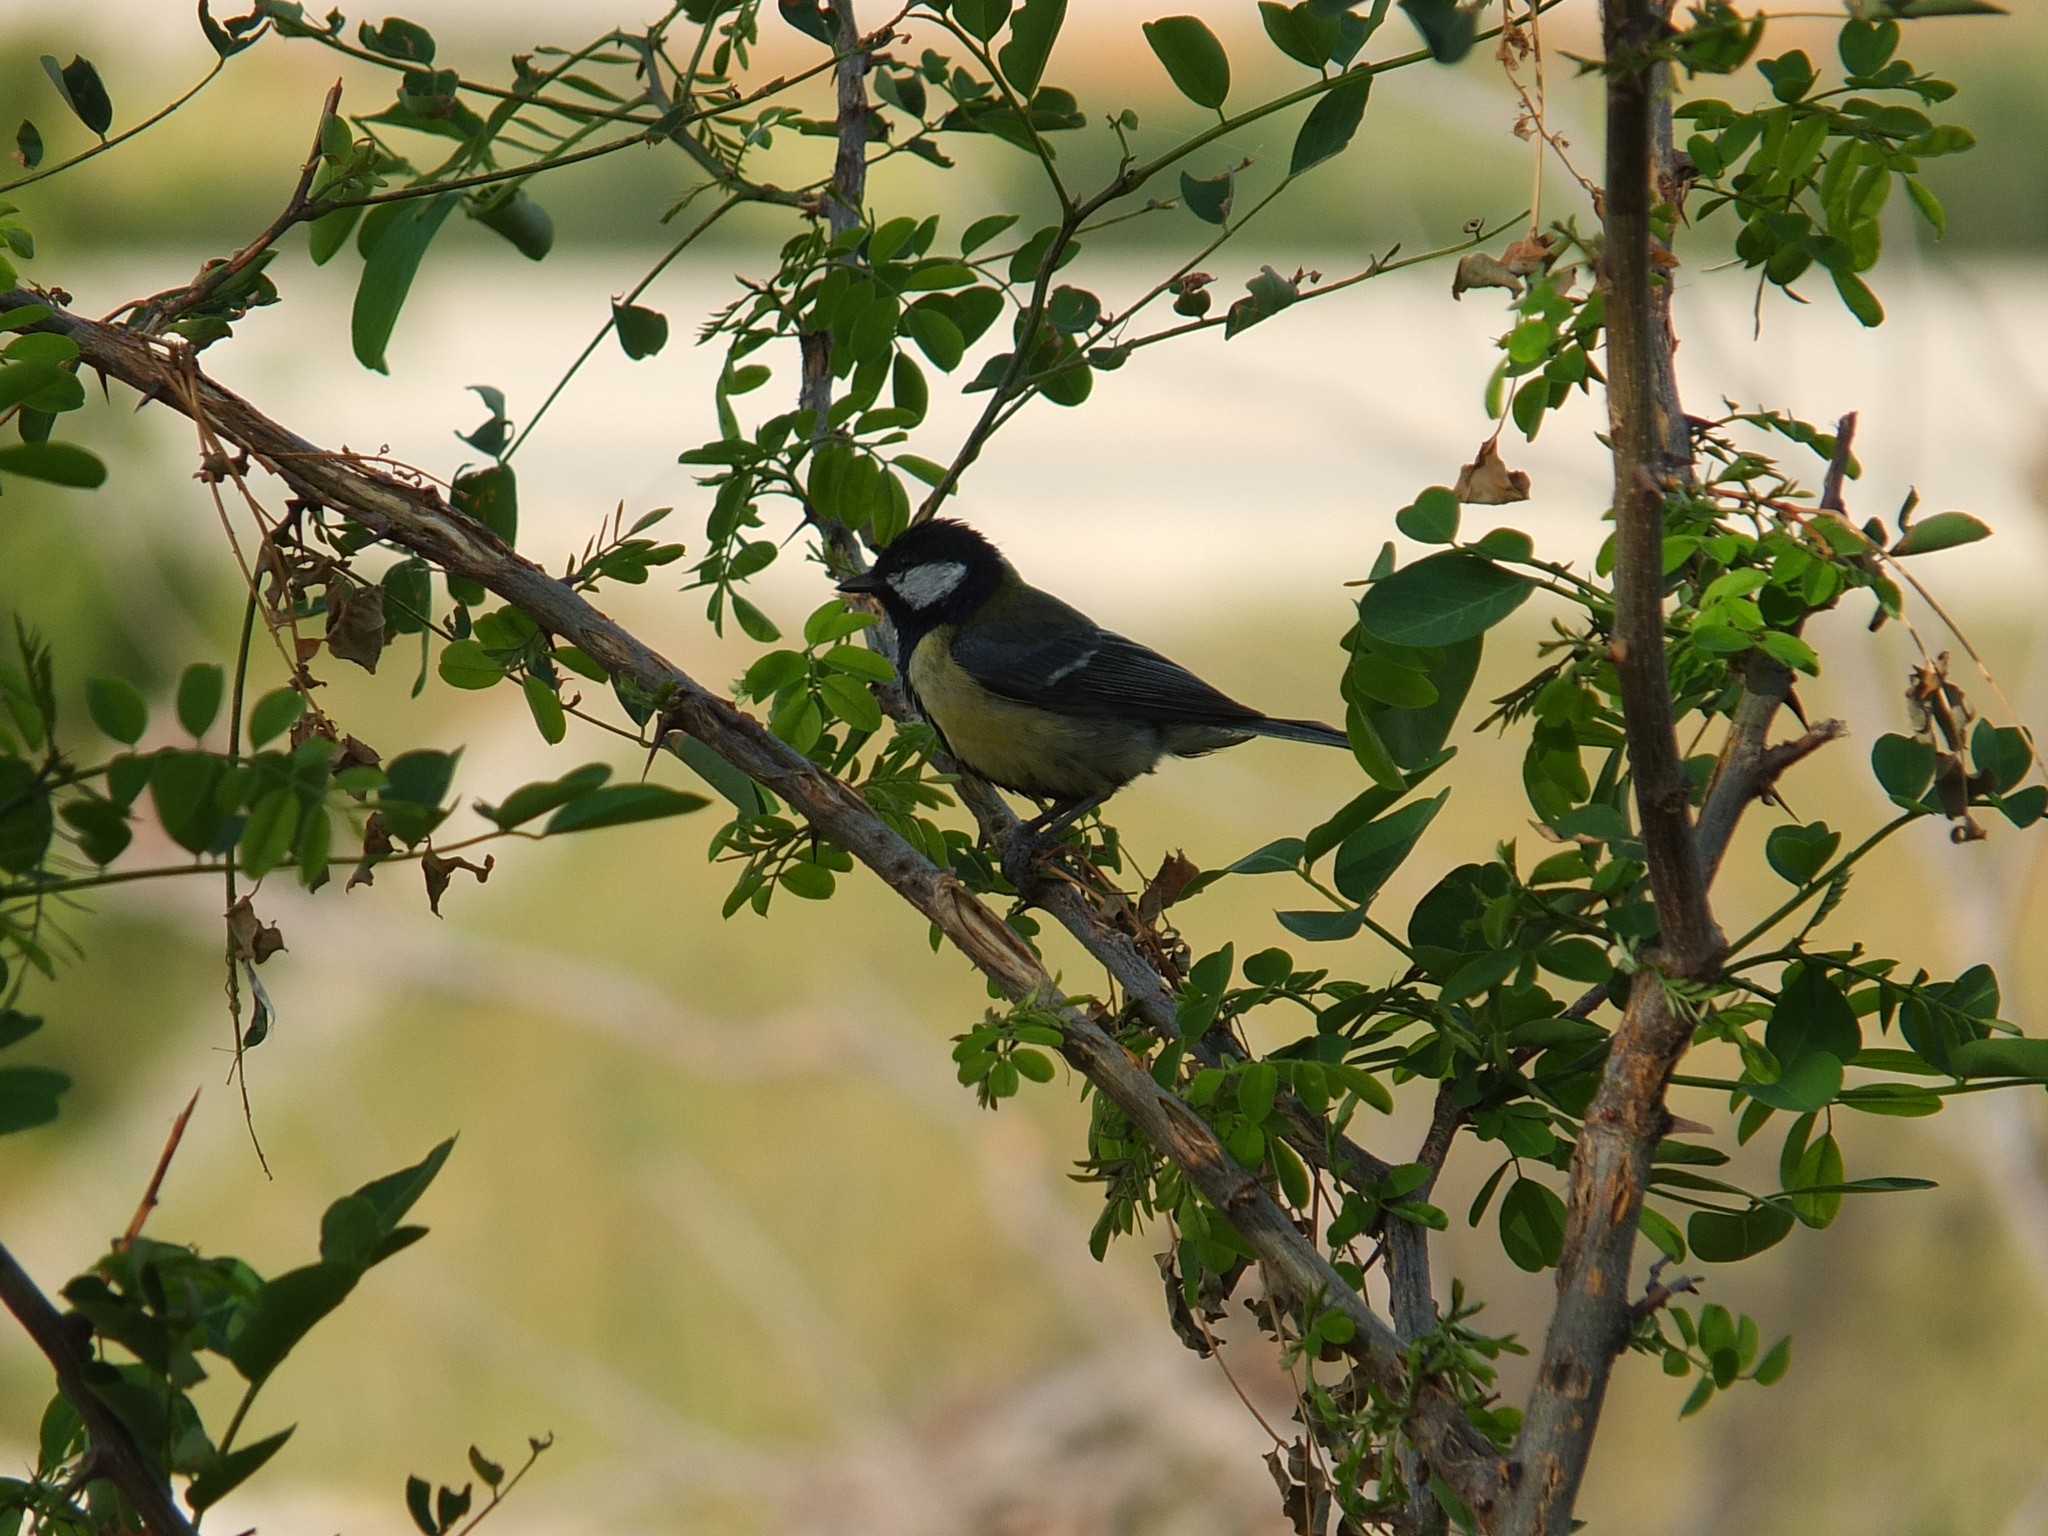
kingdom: Animalia
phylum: Chordata
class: Aves
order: Passeriformes
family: Paridae
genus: Parus
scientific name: Parus major
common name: Great tit
